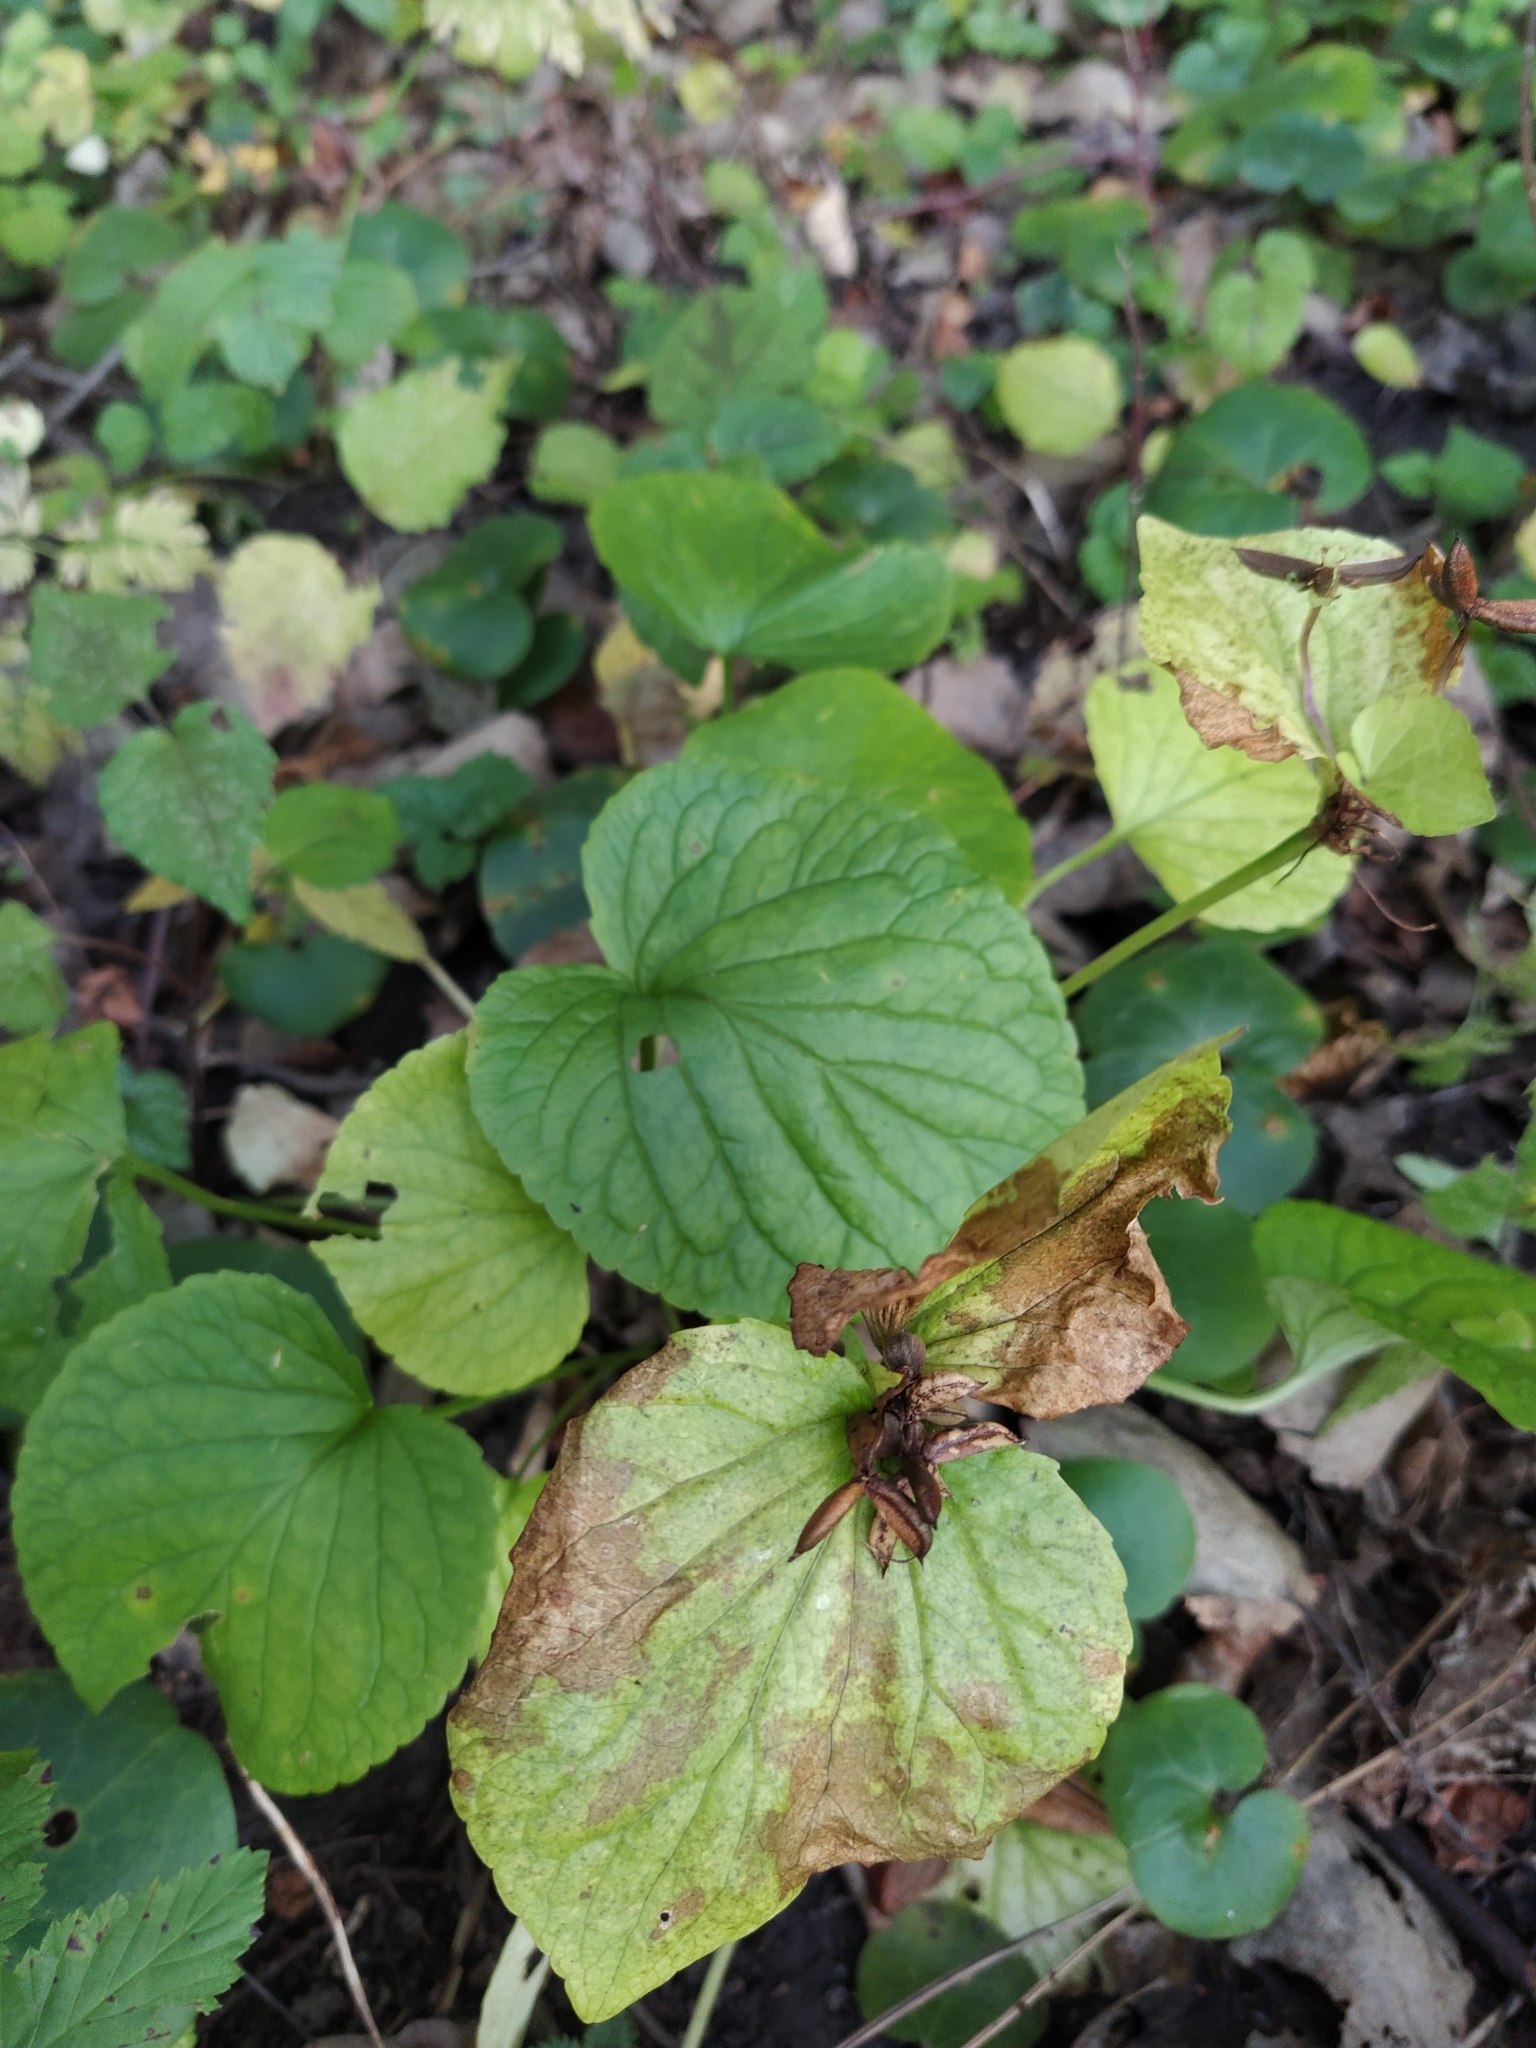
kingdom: Plantae
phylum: Tracheophyta
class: Magnoliopsida
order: Malpighiales
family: Violaceae
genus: Viola
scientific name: Viola mirabilis
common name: Wonder violet
